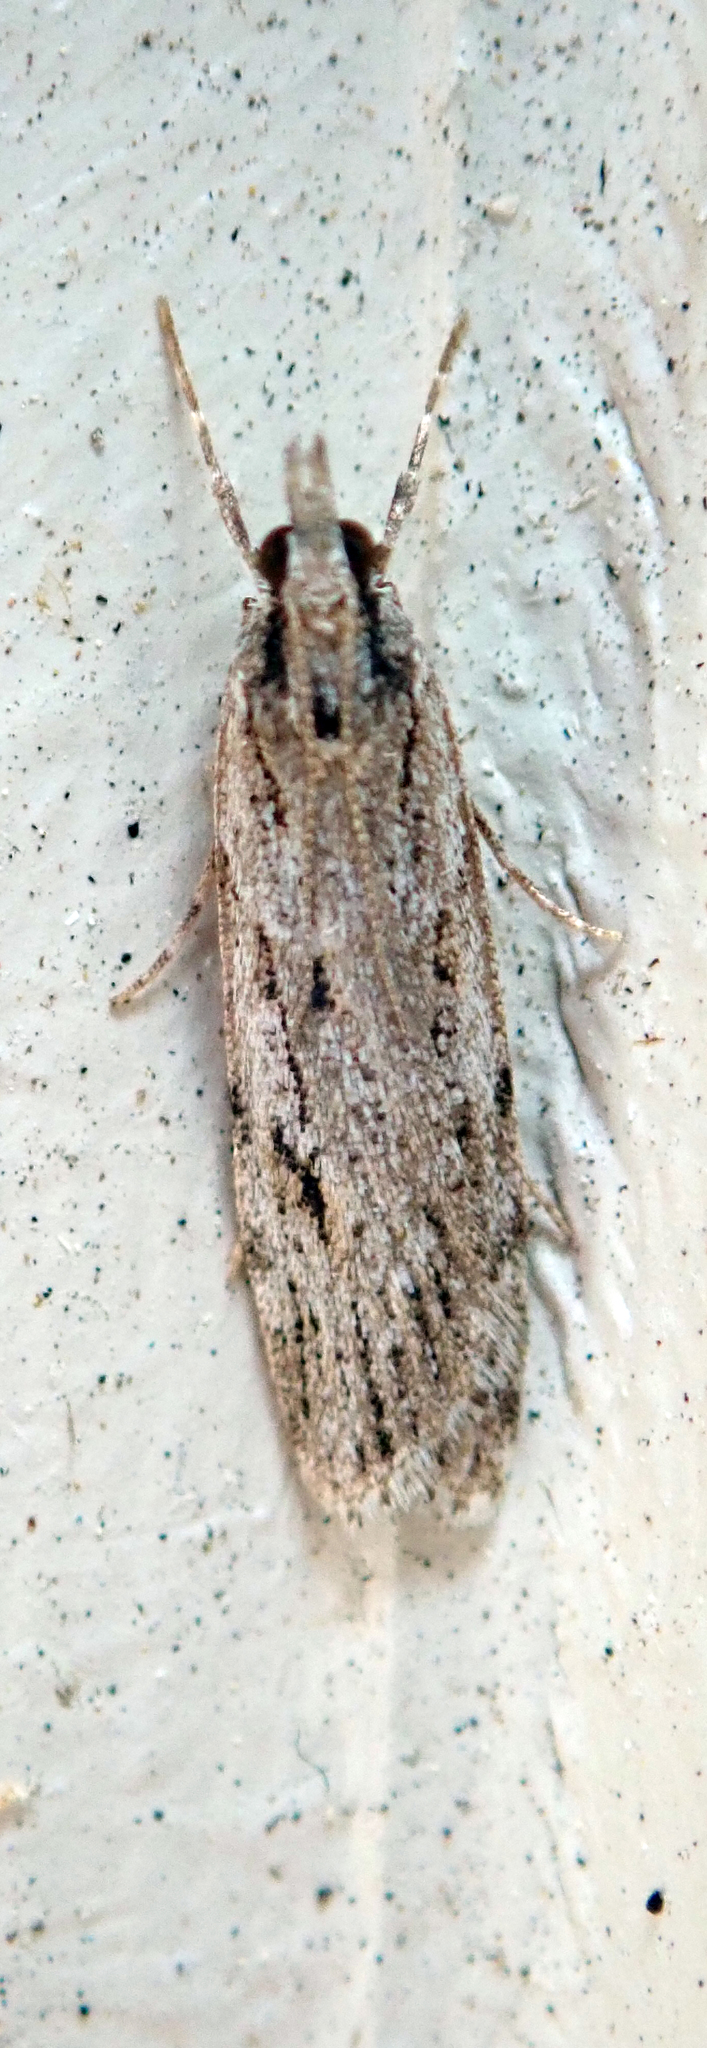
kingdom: Animalia
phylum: Arthropoda
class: Insecta
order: Lepidoptera
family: Crambidae
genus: Scoparia
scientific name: Scoparia chalicodes
